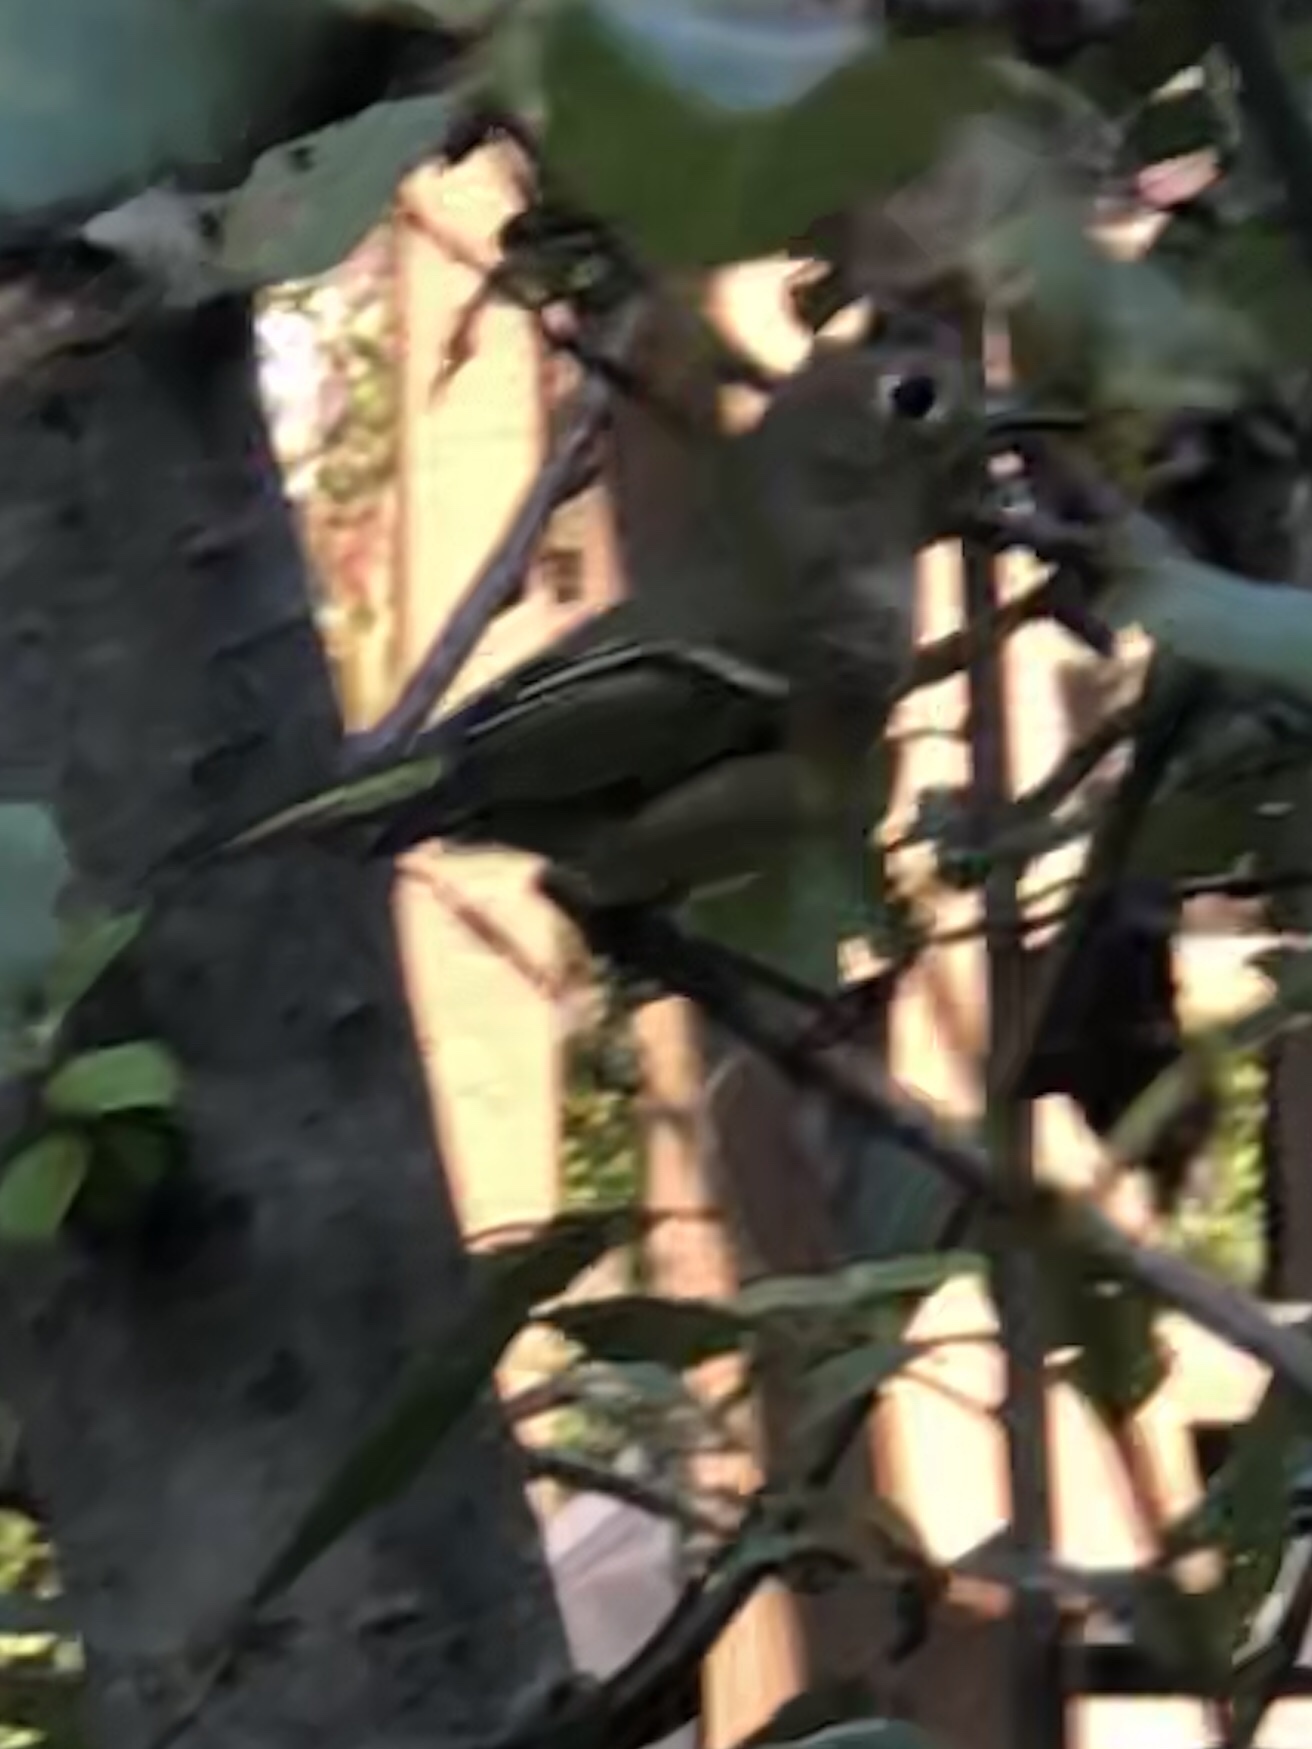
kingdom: Animalia
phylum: Chordata
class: Aves
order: Passeriformes
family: Regulidae
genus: Regulus
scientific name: Regulus calendula
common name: Ruby-crowned kinglet
